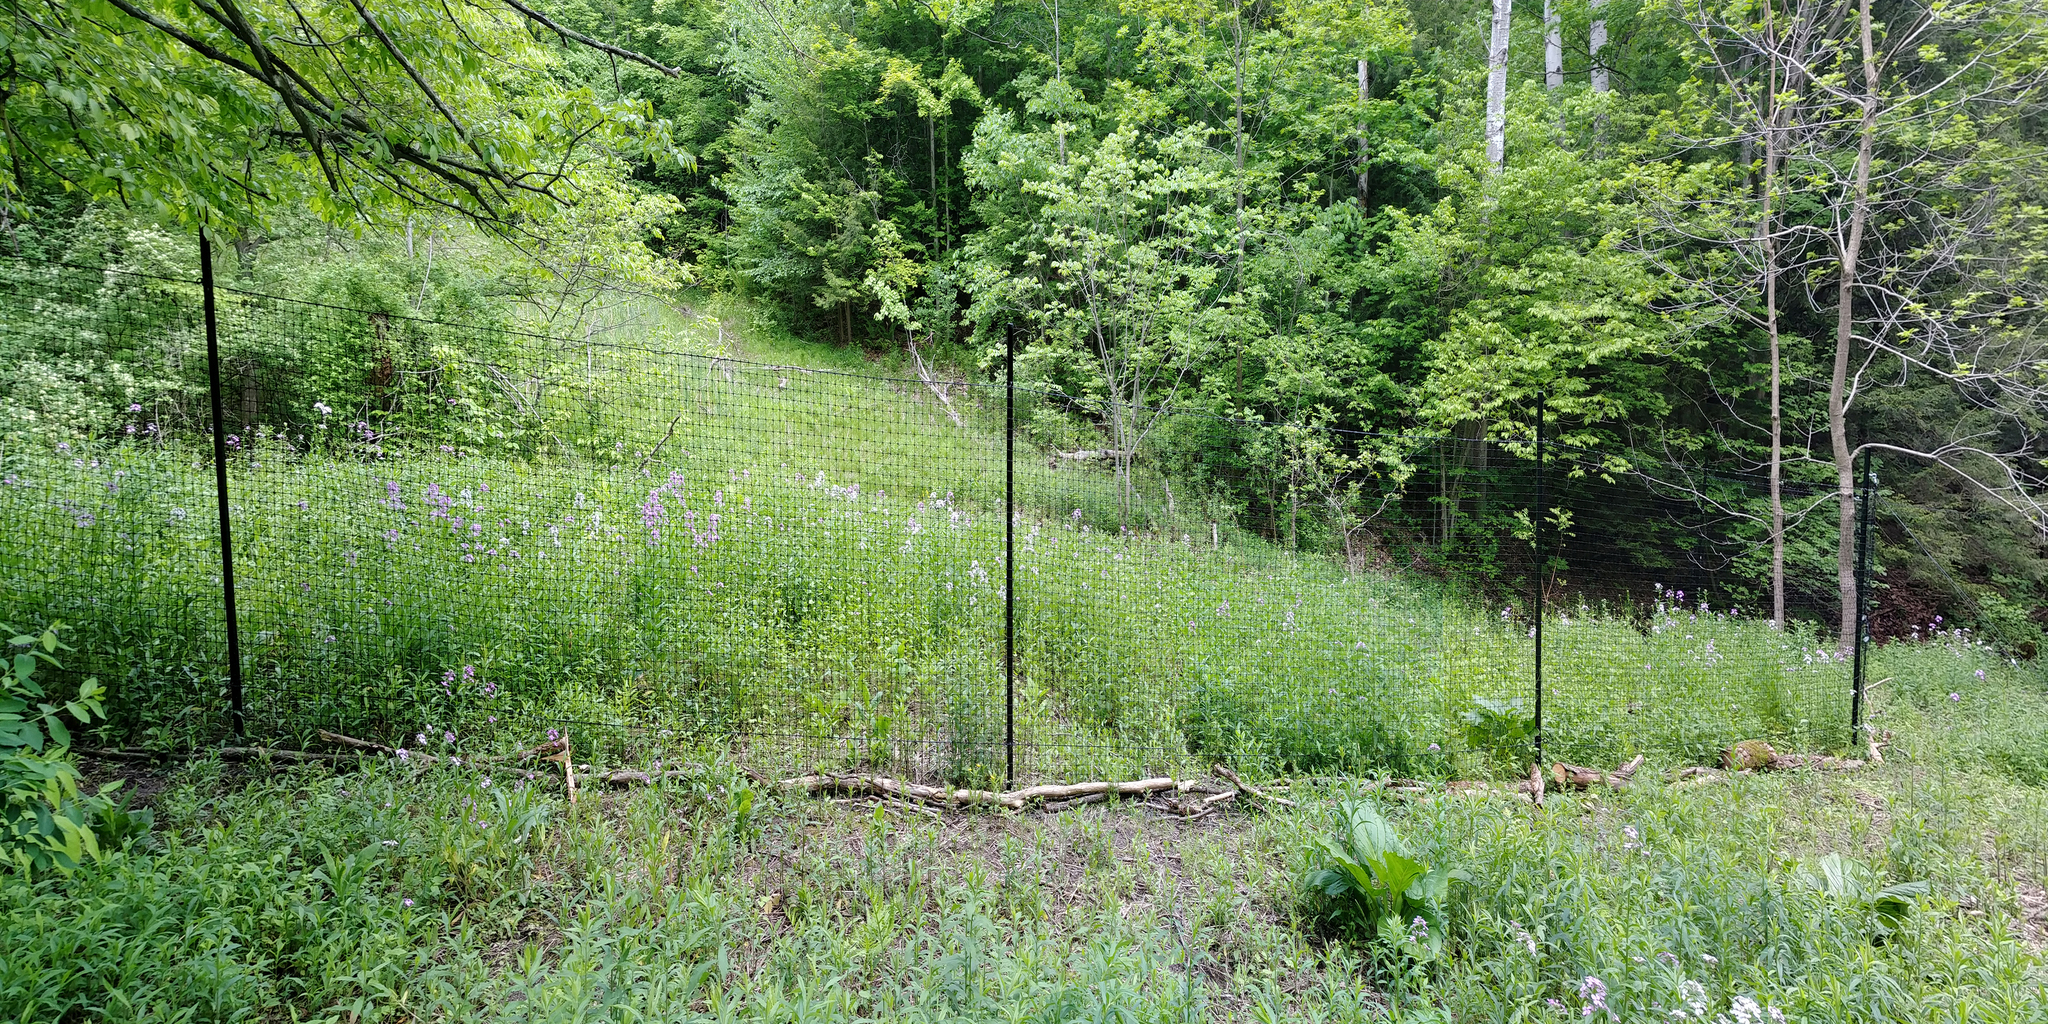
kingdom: Plantae
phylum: Tracheophyta
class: Magnoliopsida
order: Brassicales
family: Brassicaceae
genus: Hesperis
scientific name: Hesperis matronalis
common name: Dame's-violet
